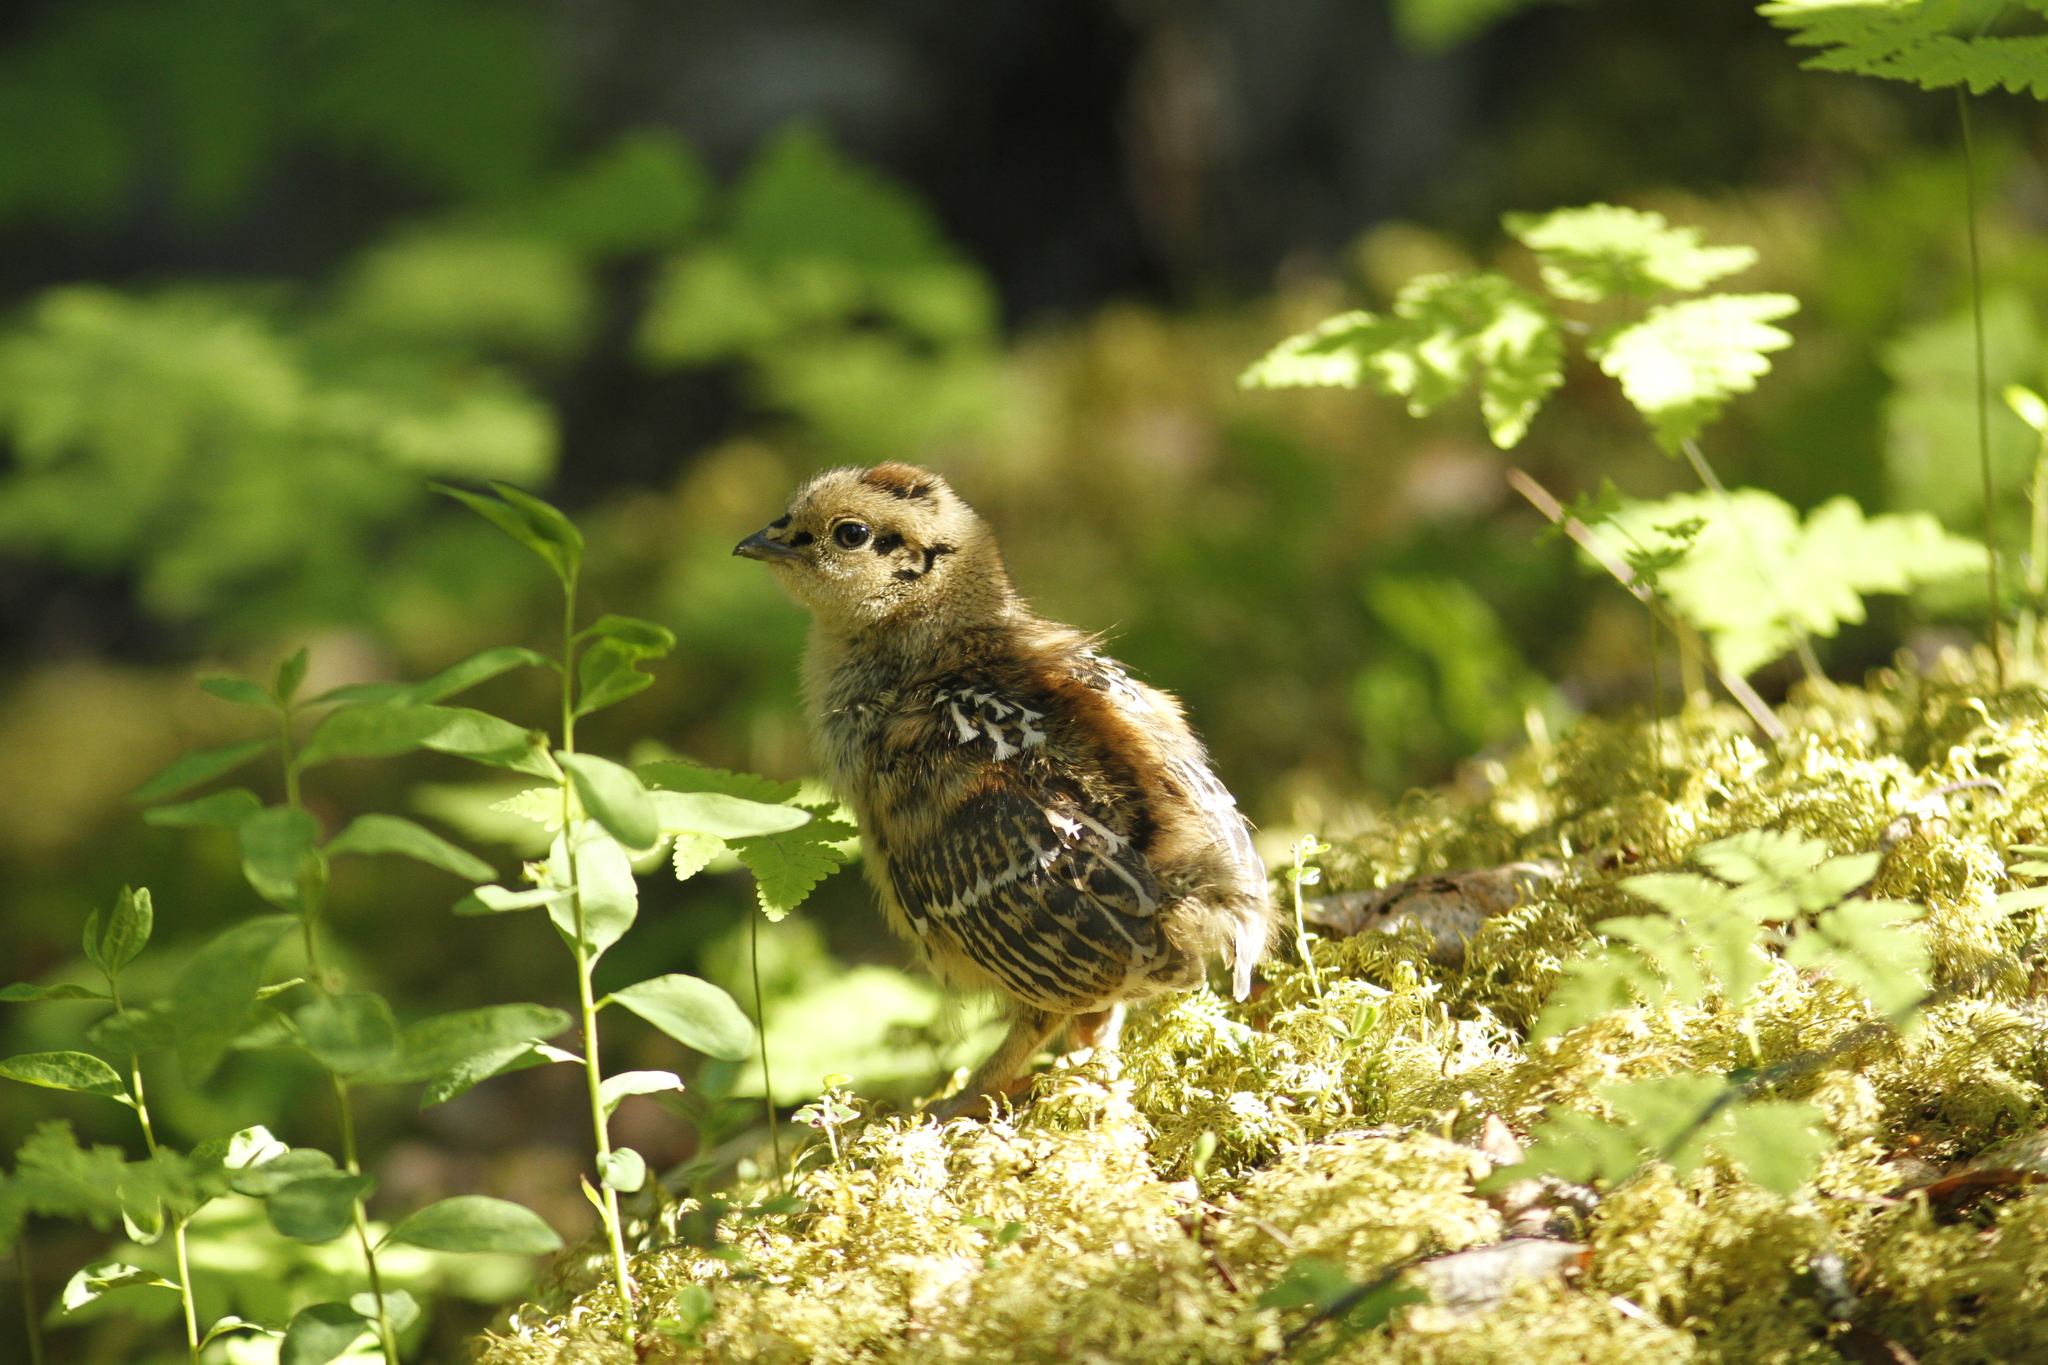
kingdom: Animalia
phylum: Chordata
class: Aves
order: Galliformes
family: Phasianidae
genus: Canachites
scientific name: Canachites canadensis
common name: Spruce grouse
